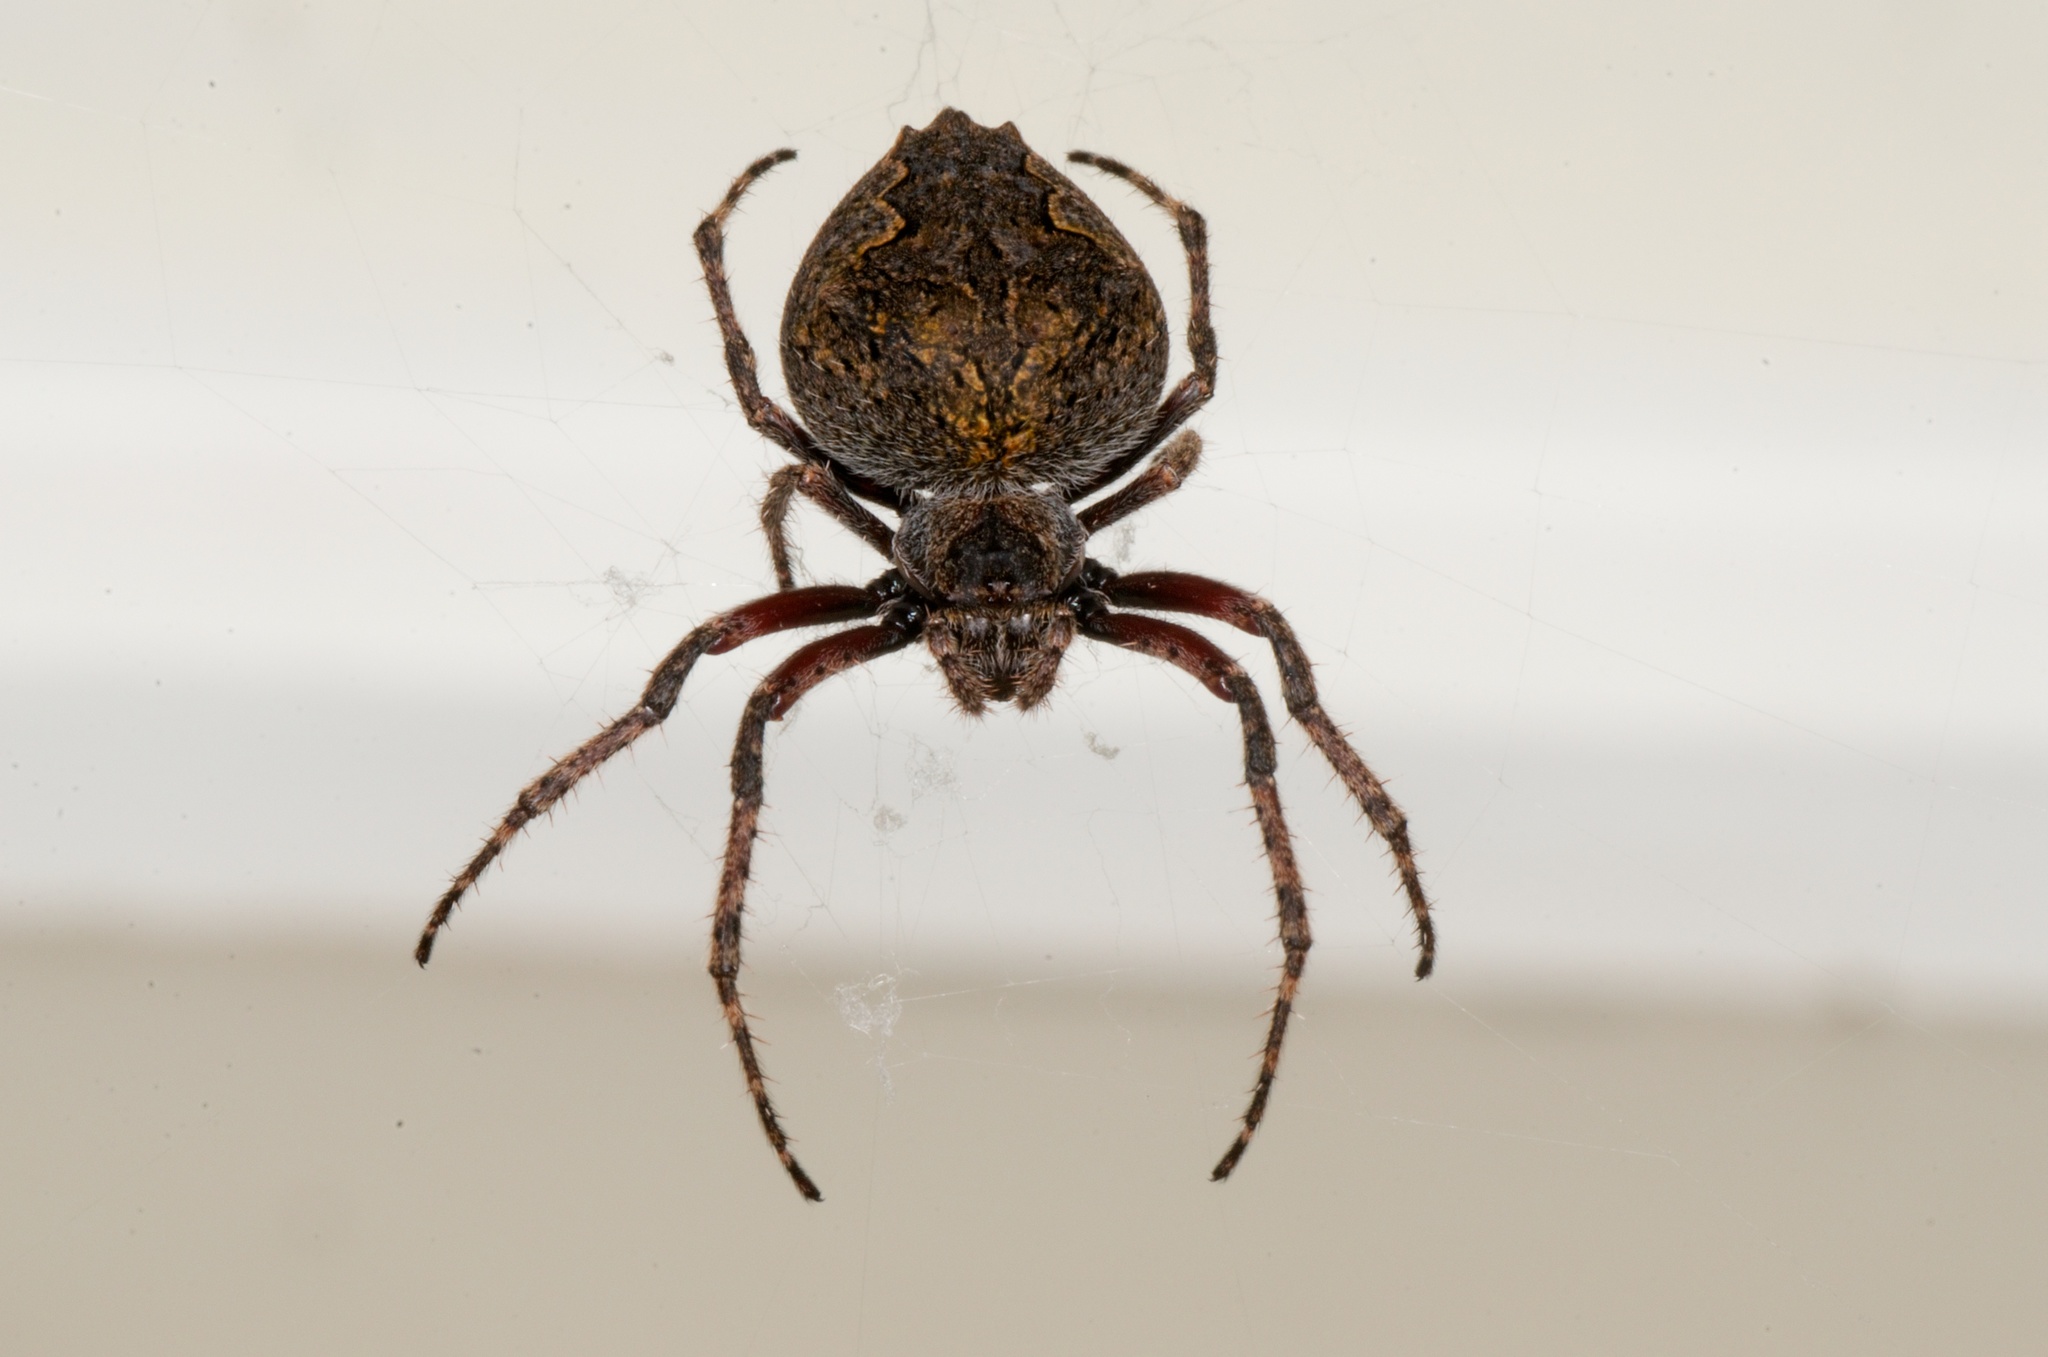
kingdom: Animalia
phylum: Arthropoda
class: Arachnida
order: Araneae
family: Araneidae
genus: Eriophora
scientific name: Eriophora pustulosa
